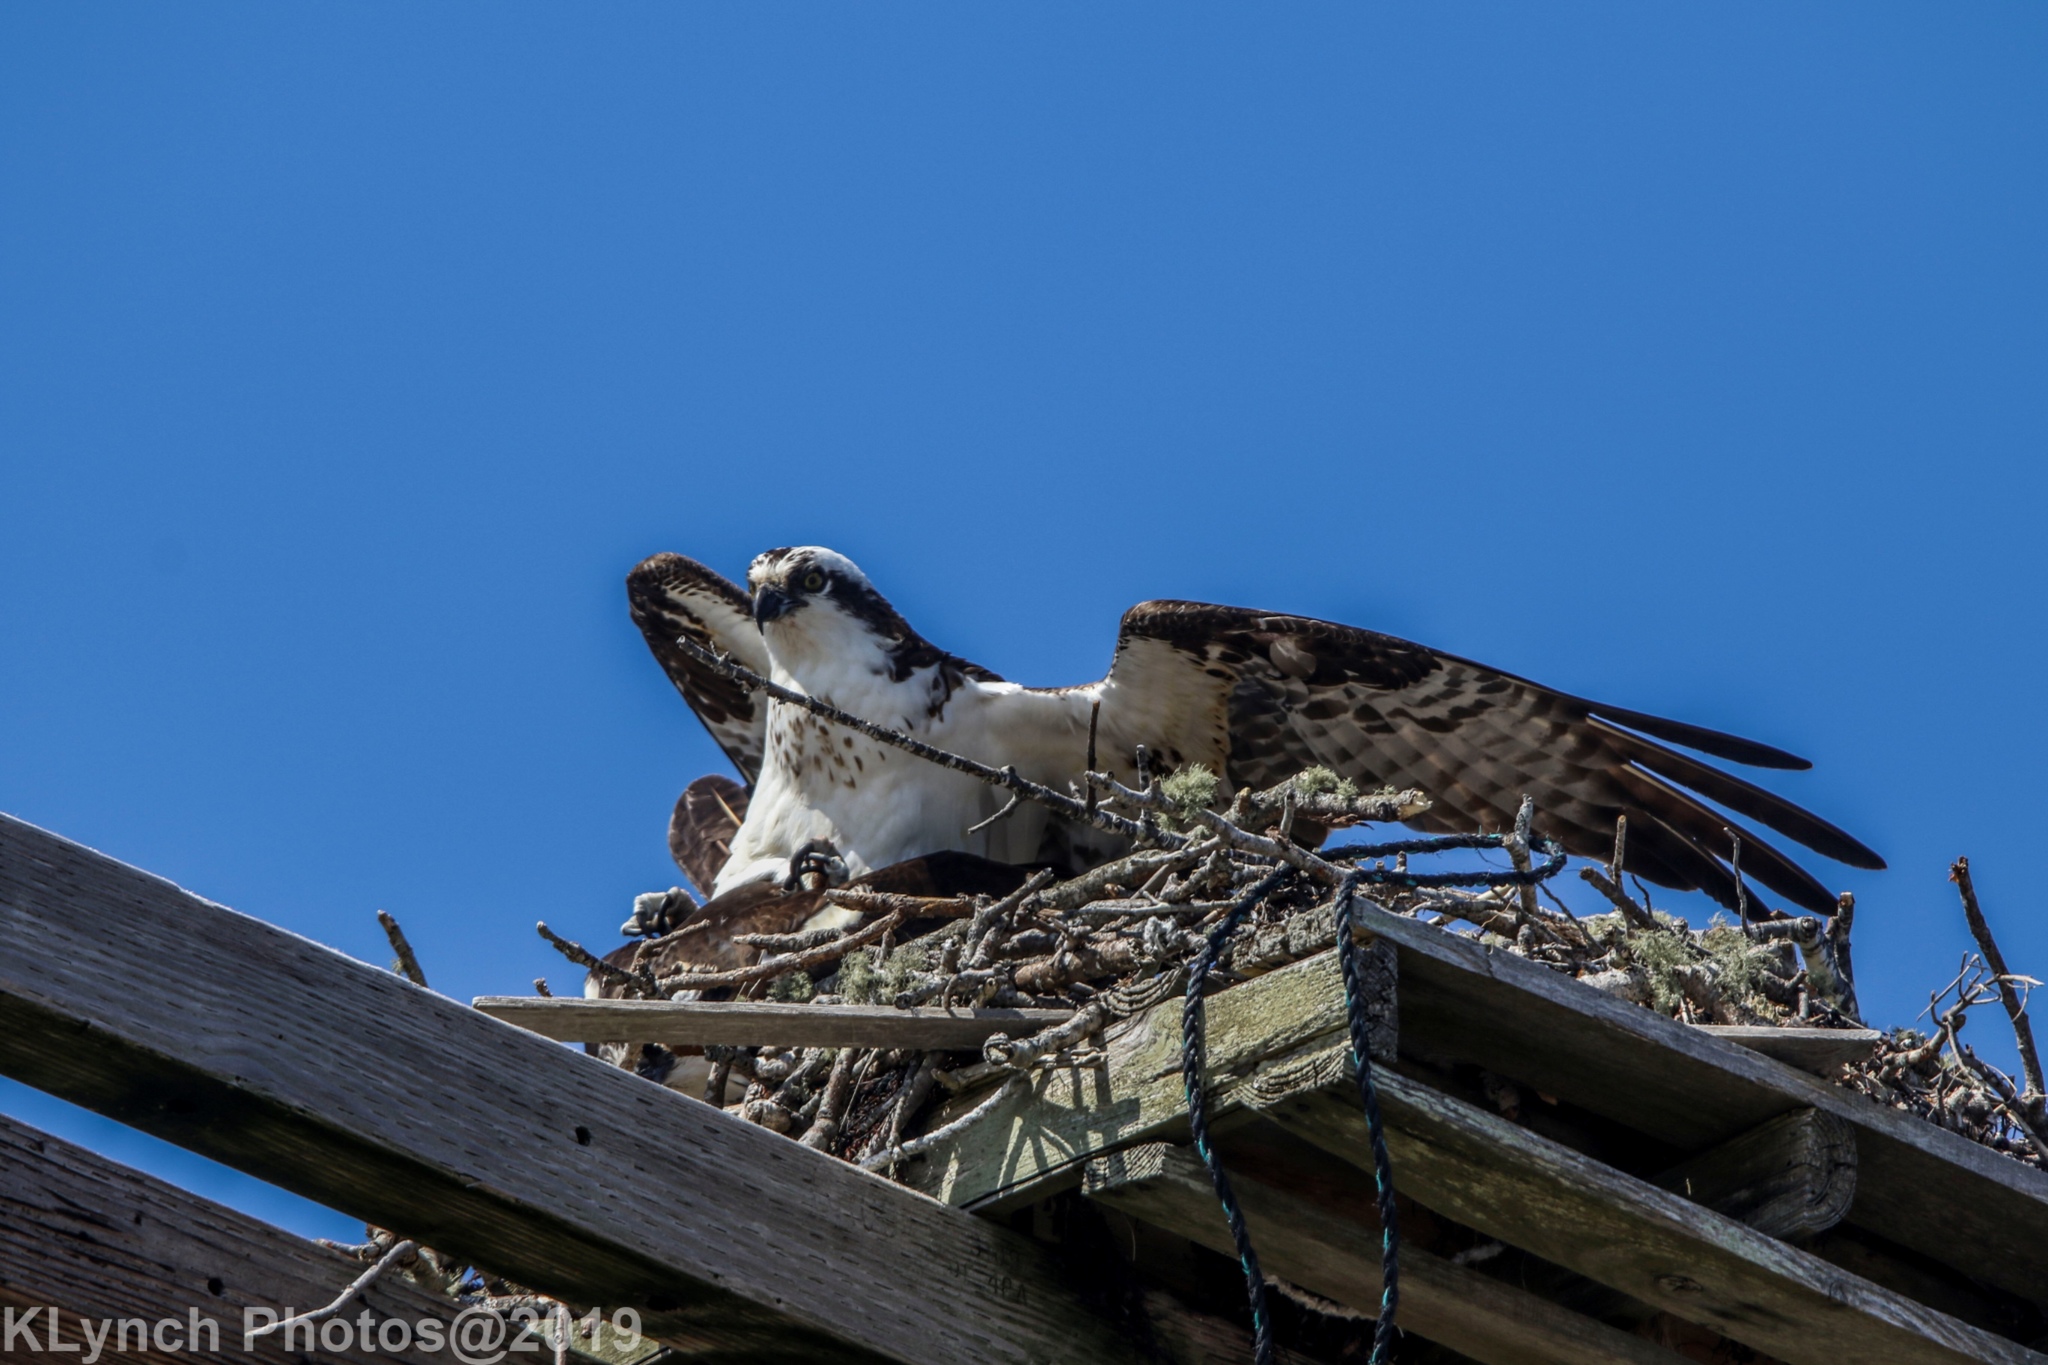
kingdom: Animalia
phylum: Chordata
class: Aves
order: Accipitriformes
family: Pandionidae
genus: Pandion
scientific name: Pandion haliaetus
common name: Osprey
